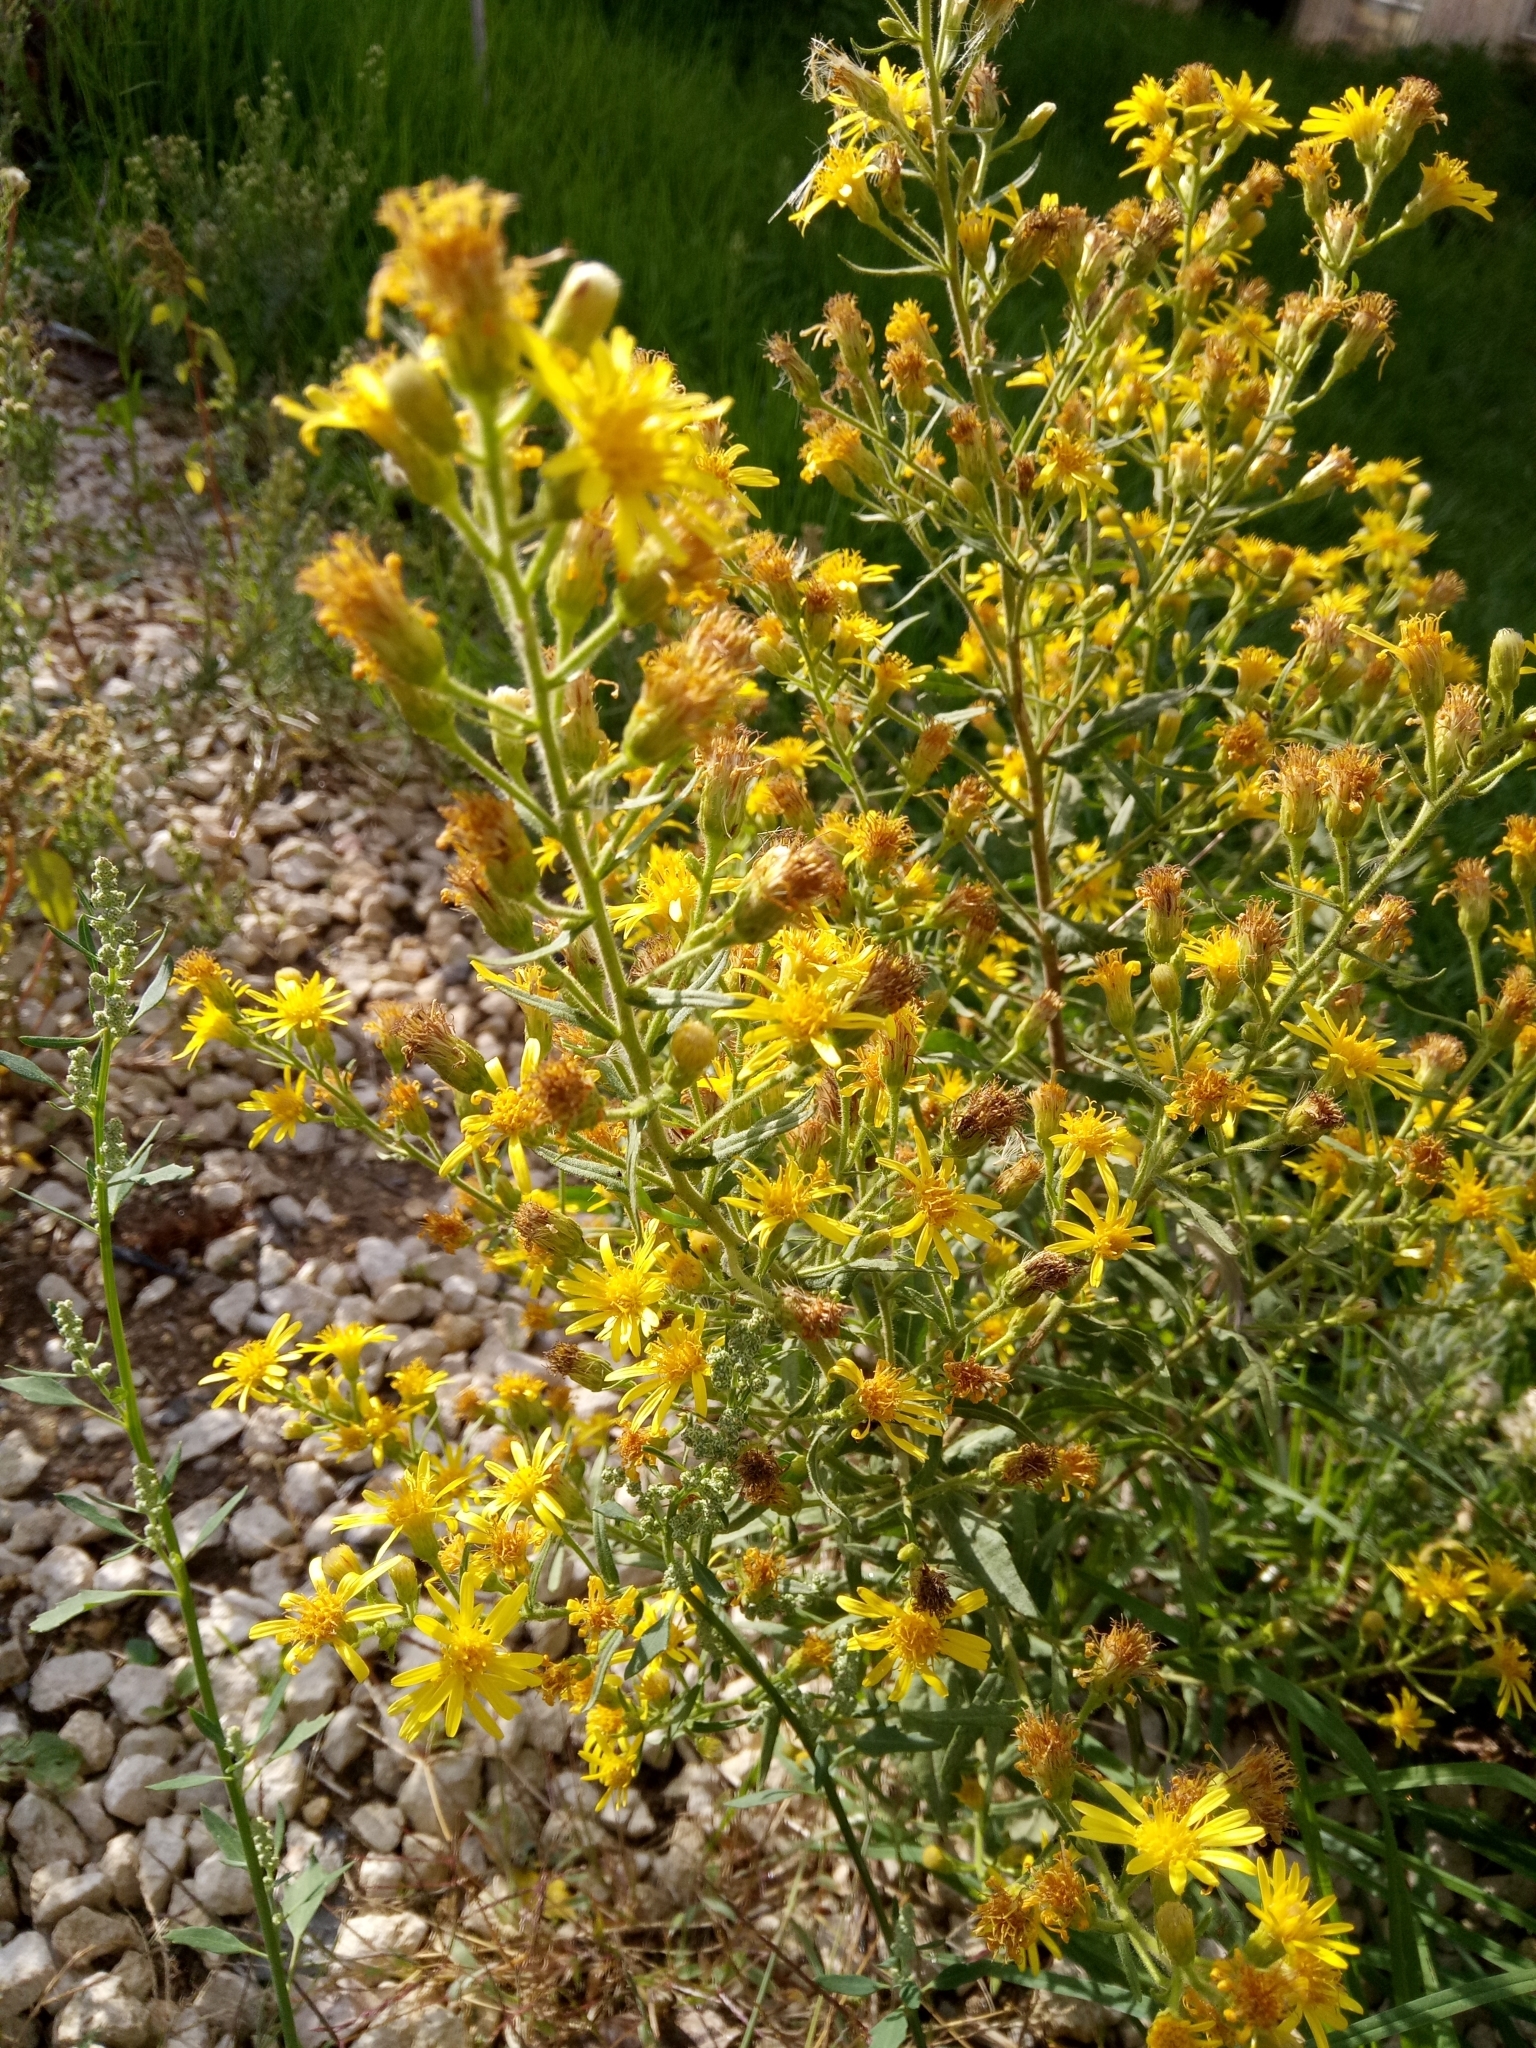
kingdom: Plantae
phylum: Tracheophyta
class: Magnoliopsida
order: Asterales
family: Asteraceae
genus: Dittrichia
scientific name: Dittrichia viscosa
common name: Woody fleabane
